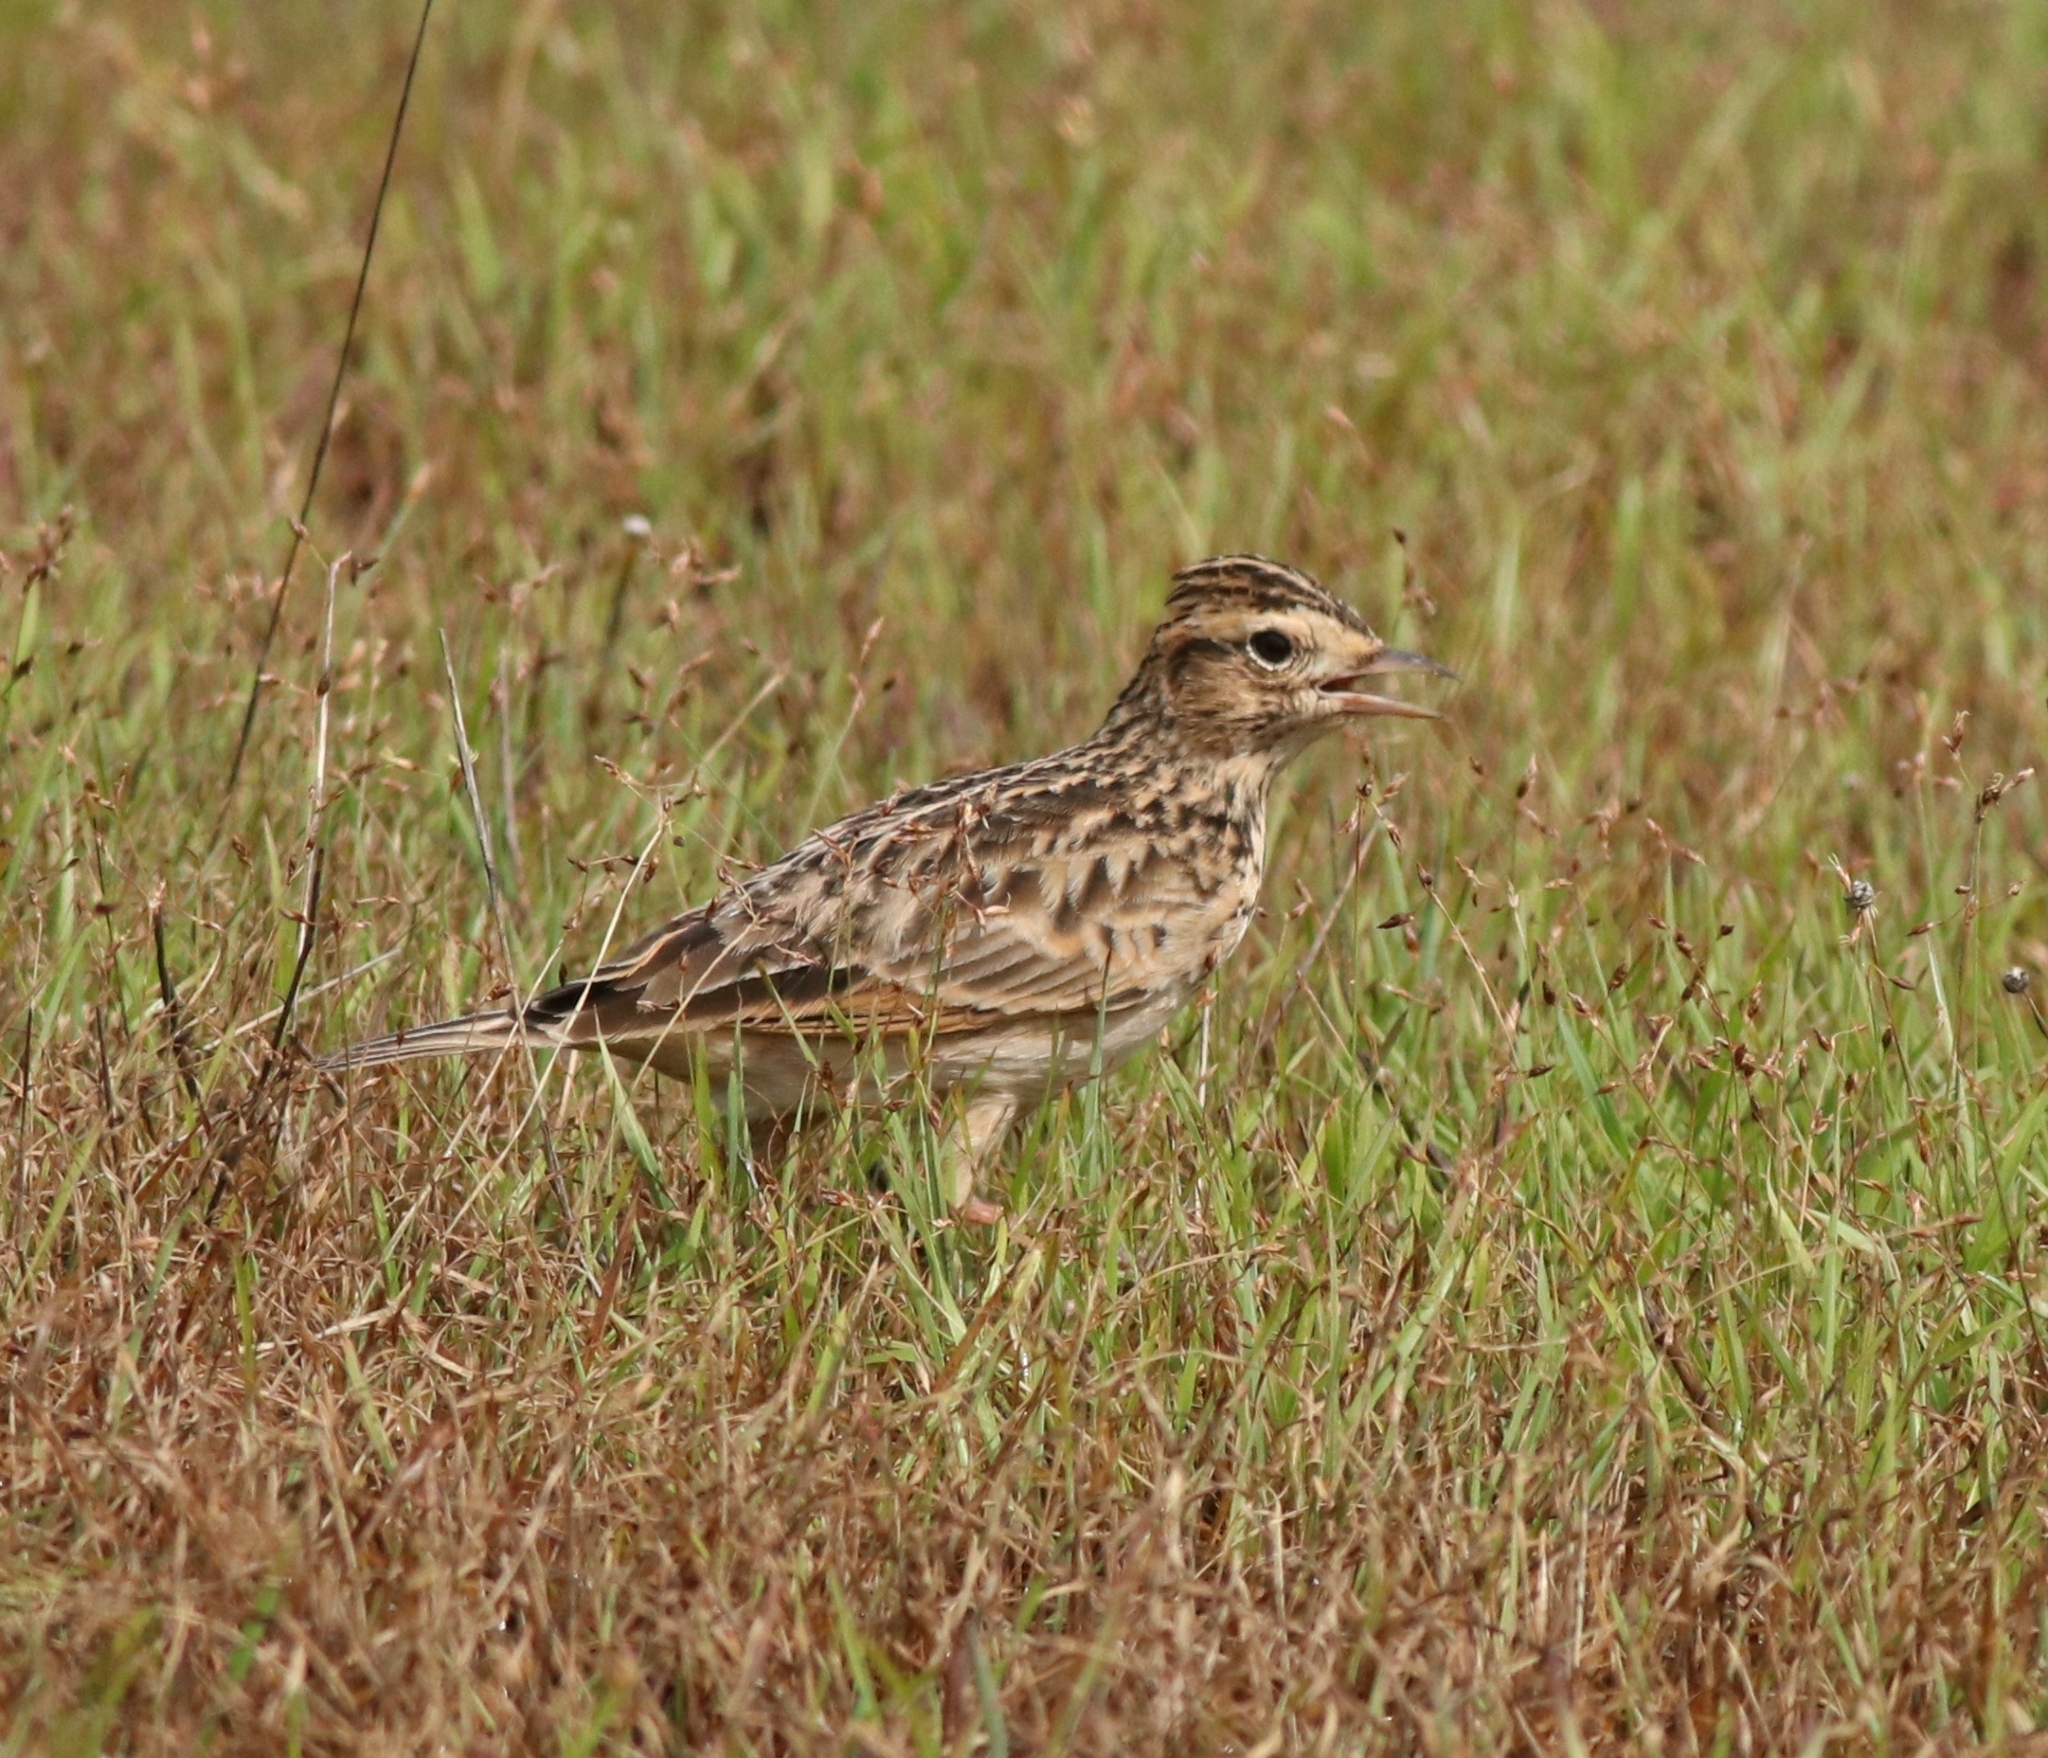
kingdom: Animalia
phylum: Chordata
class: Aves
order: Passeriformes
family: Alaudidae
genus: Alauda
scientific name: Alauda gulgula
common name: Oriental skylark
